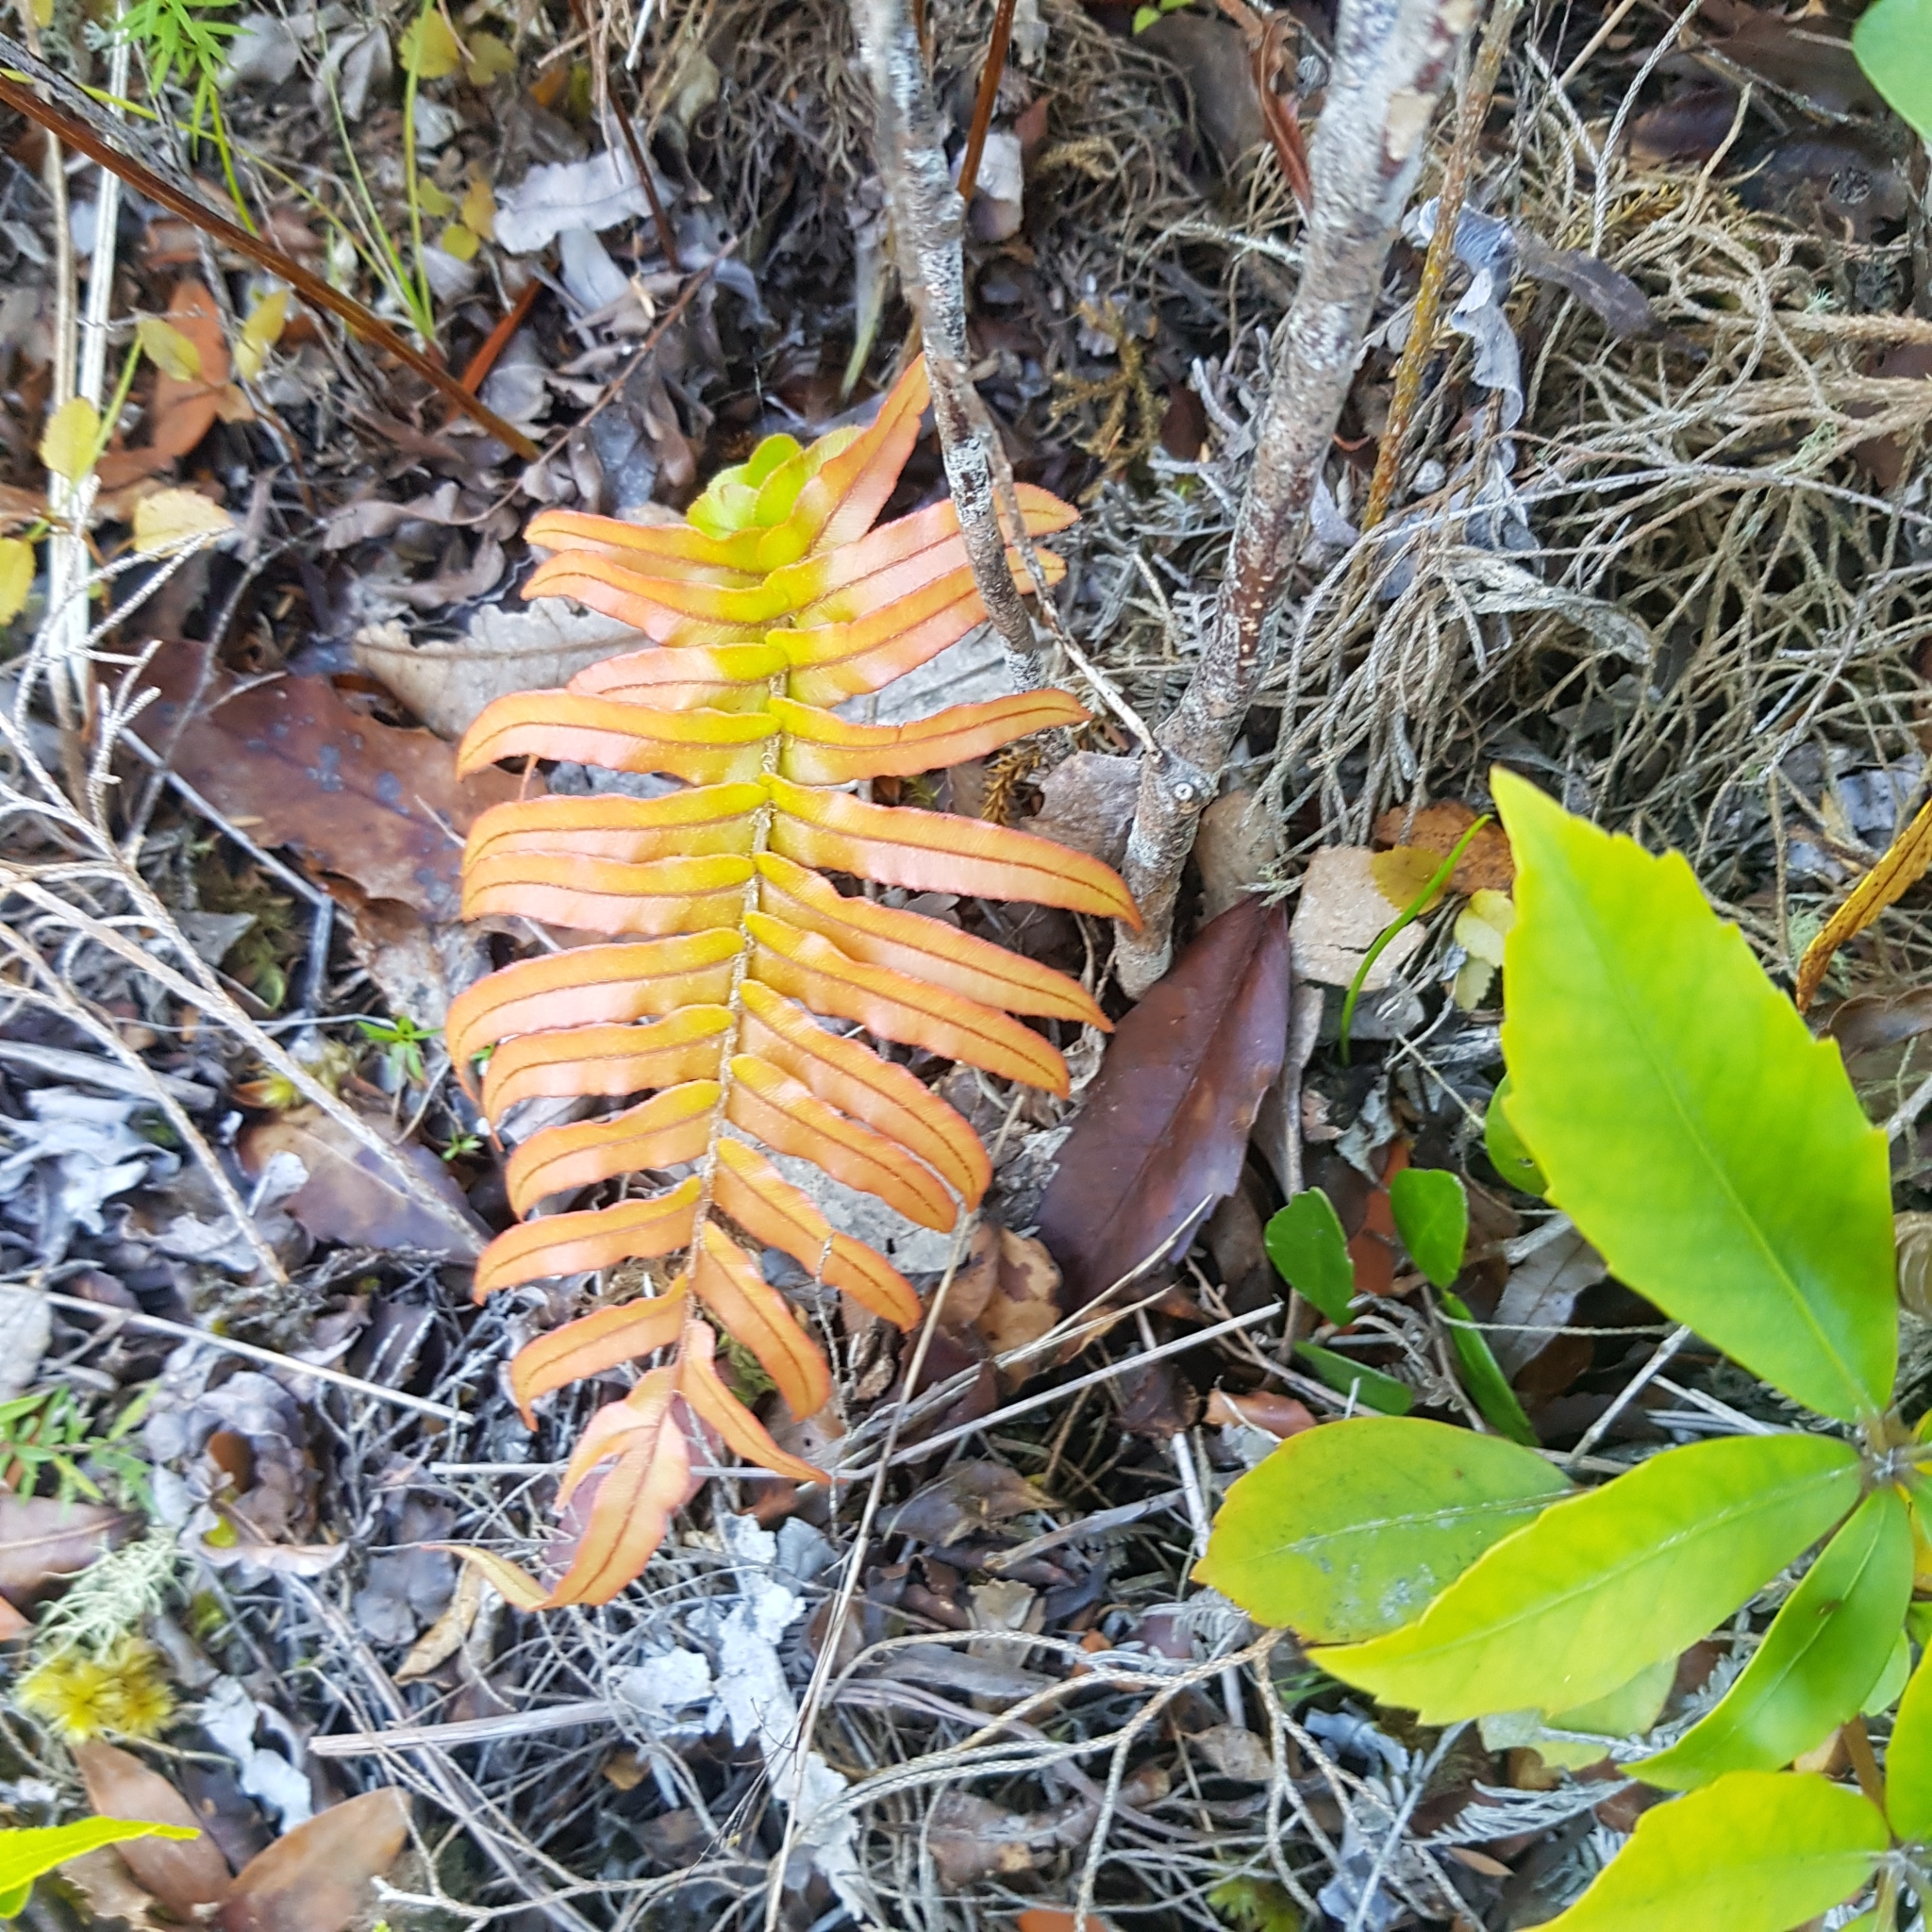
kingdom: Plantae
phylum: Tracheophyta
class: Polypodiopsida
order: Polypodiales
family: Blechnaceae
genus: Parablechnum
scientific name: Parablechnum novae-zelandiae
